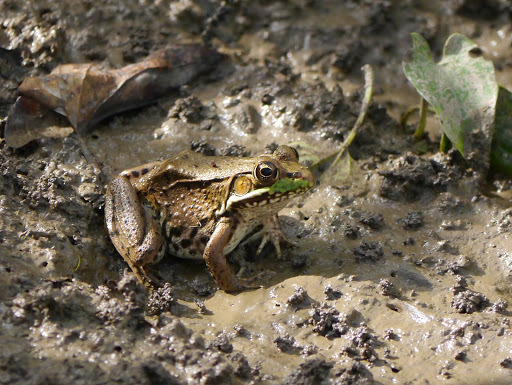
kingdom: Animalia
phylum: Chordata
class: Amphibia
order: Anura
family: Ranidae
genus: Lithobates
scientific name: Lithobates clamitans
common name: Green frog
